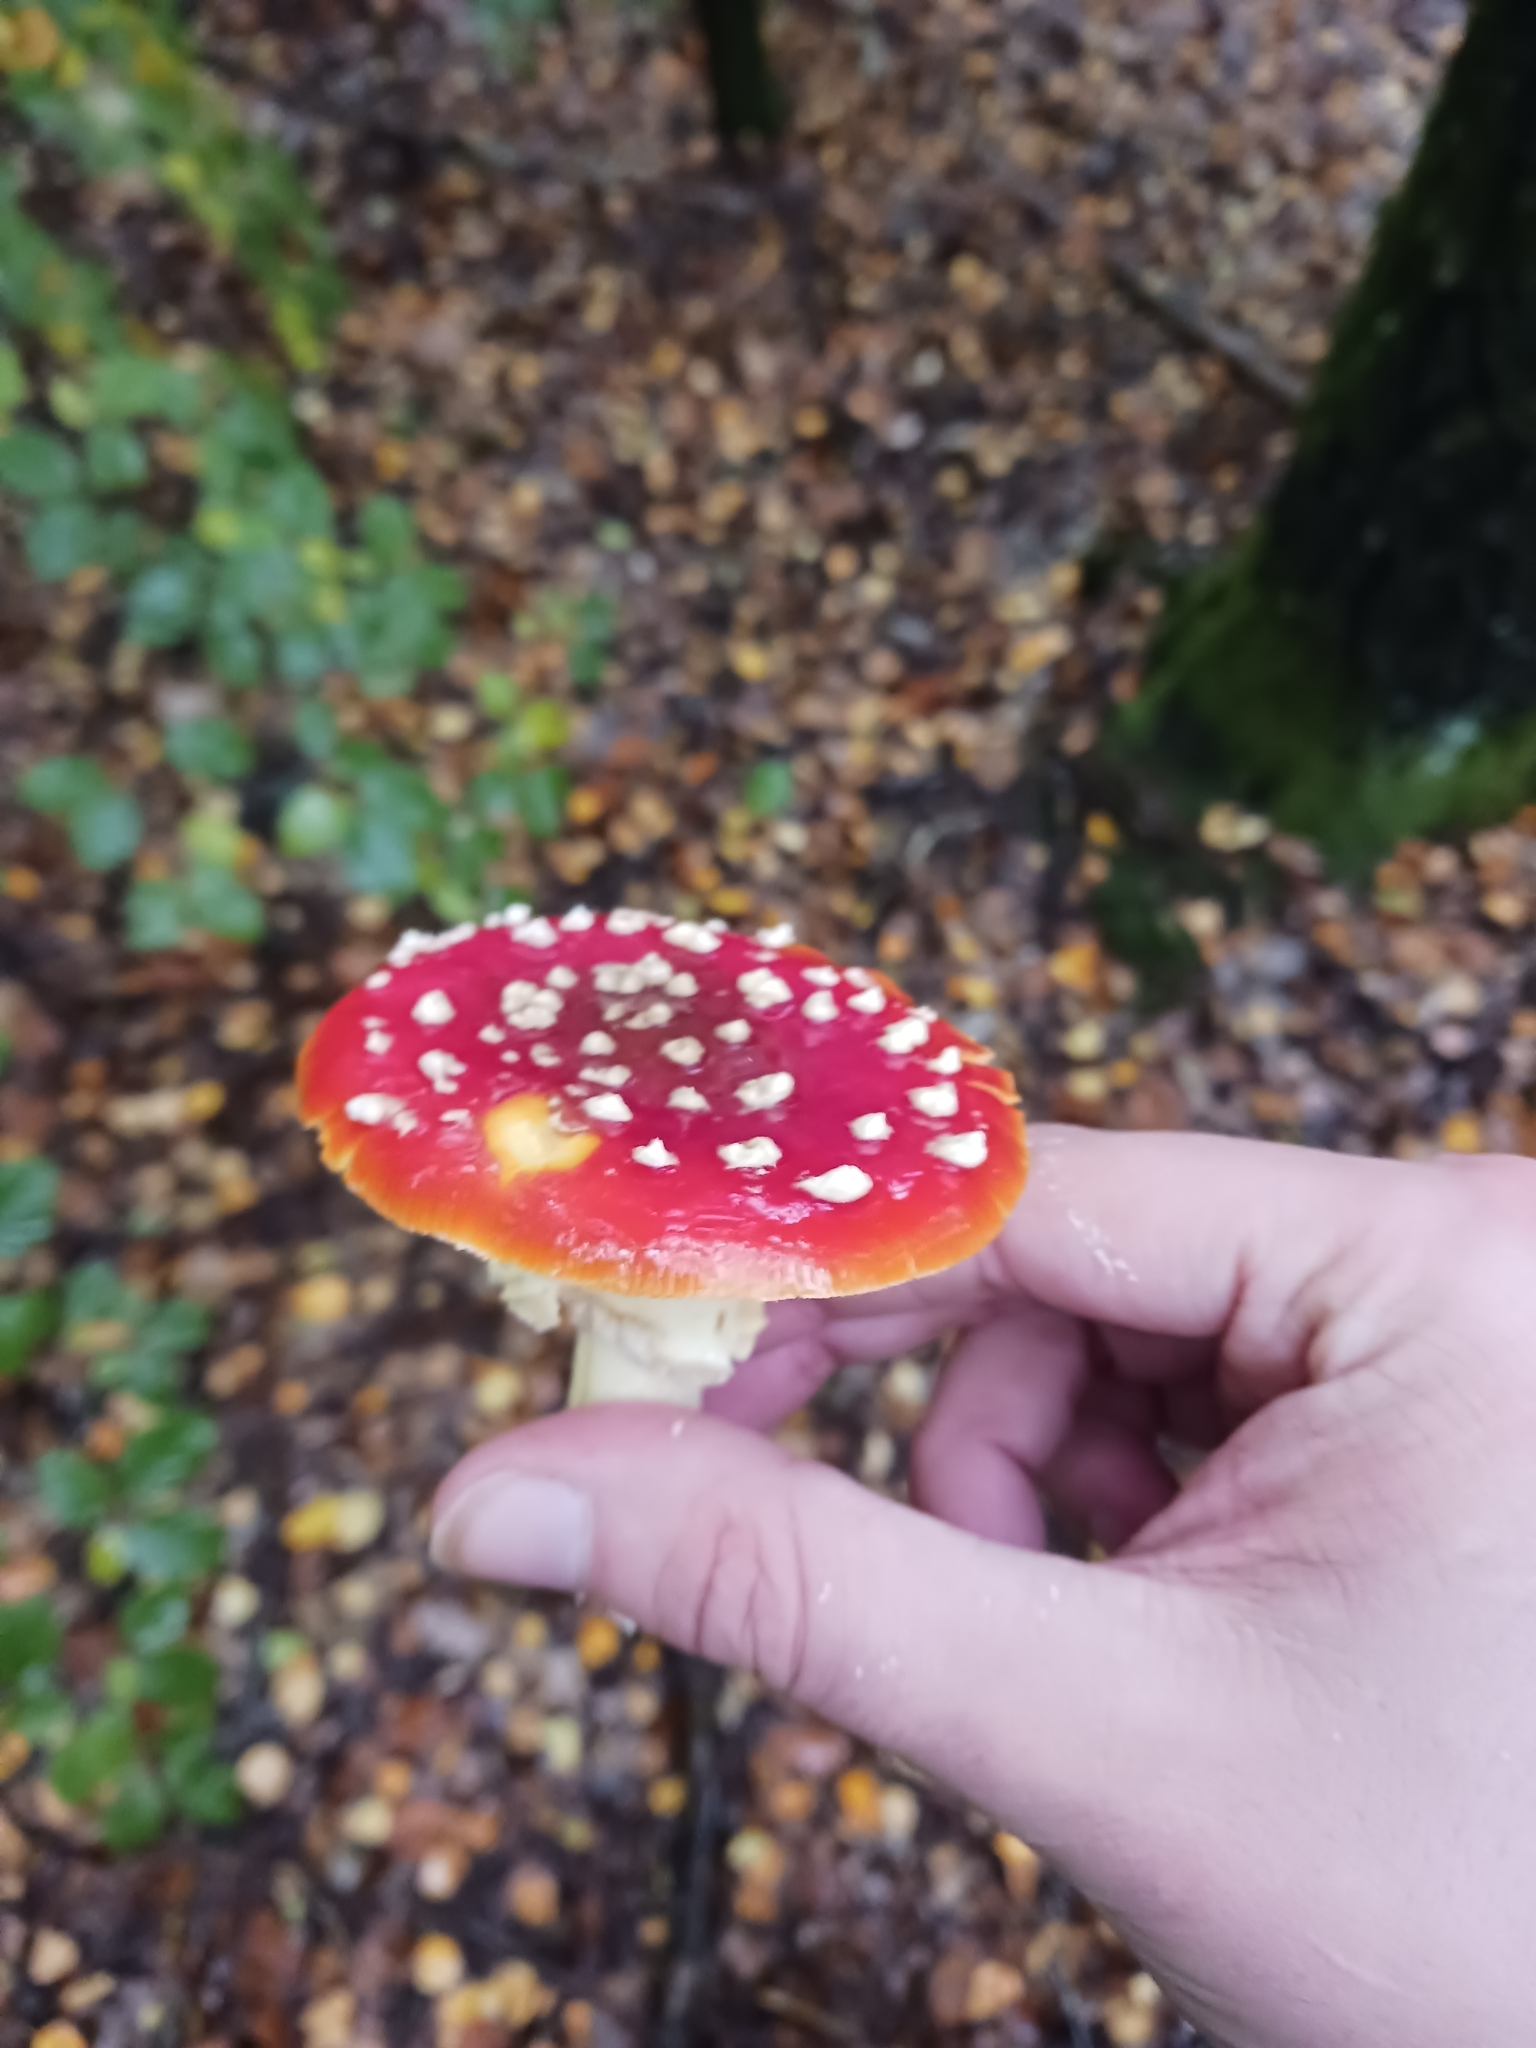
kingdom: Fungi
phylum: Basidiomycota
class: Agaricomycetes
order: Agaricales
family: Amanitaceae
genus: Amanita
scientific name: Amanita muscaria
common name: Fly agaric
